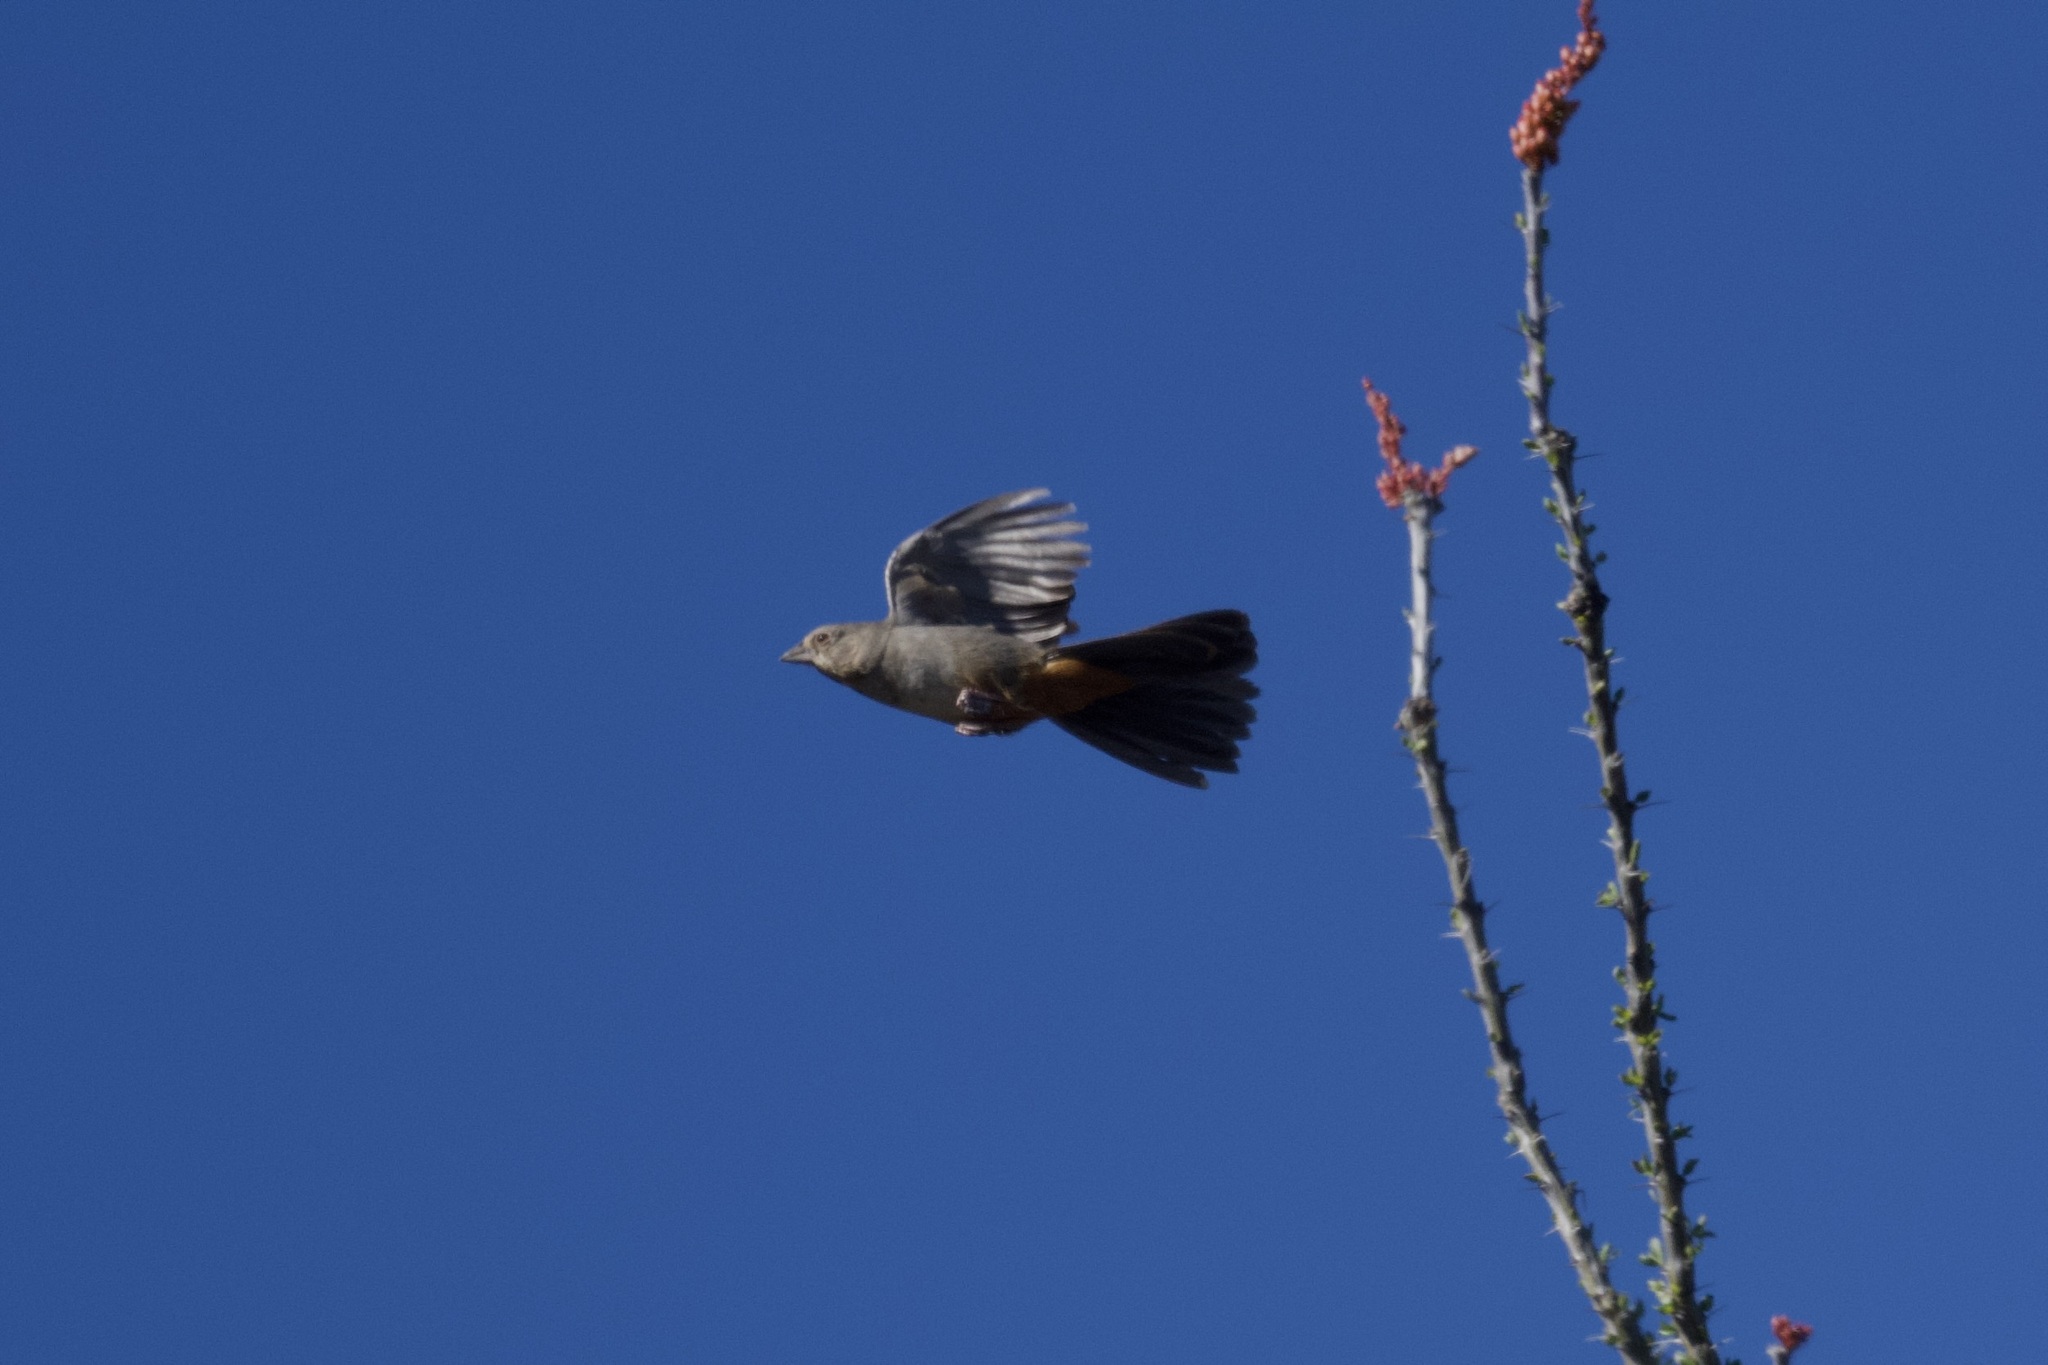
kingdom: Animalia
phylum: Chordata
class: Aves
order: Passeriformes
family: Passerellidae
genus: Melozone
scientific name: Melozone fusca
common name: Canyon towhee
